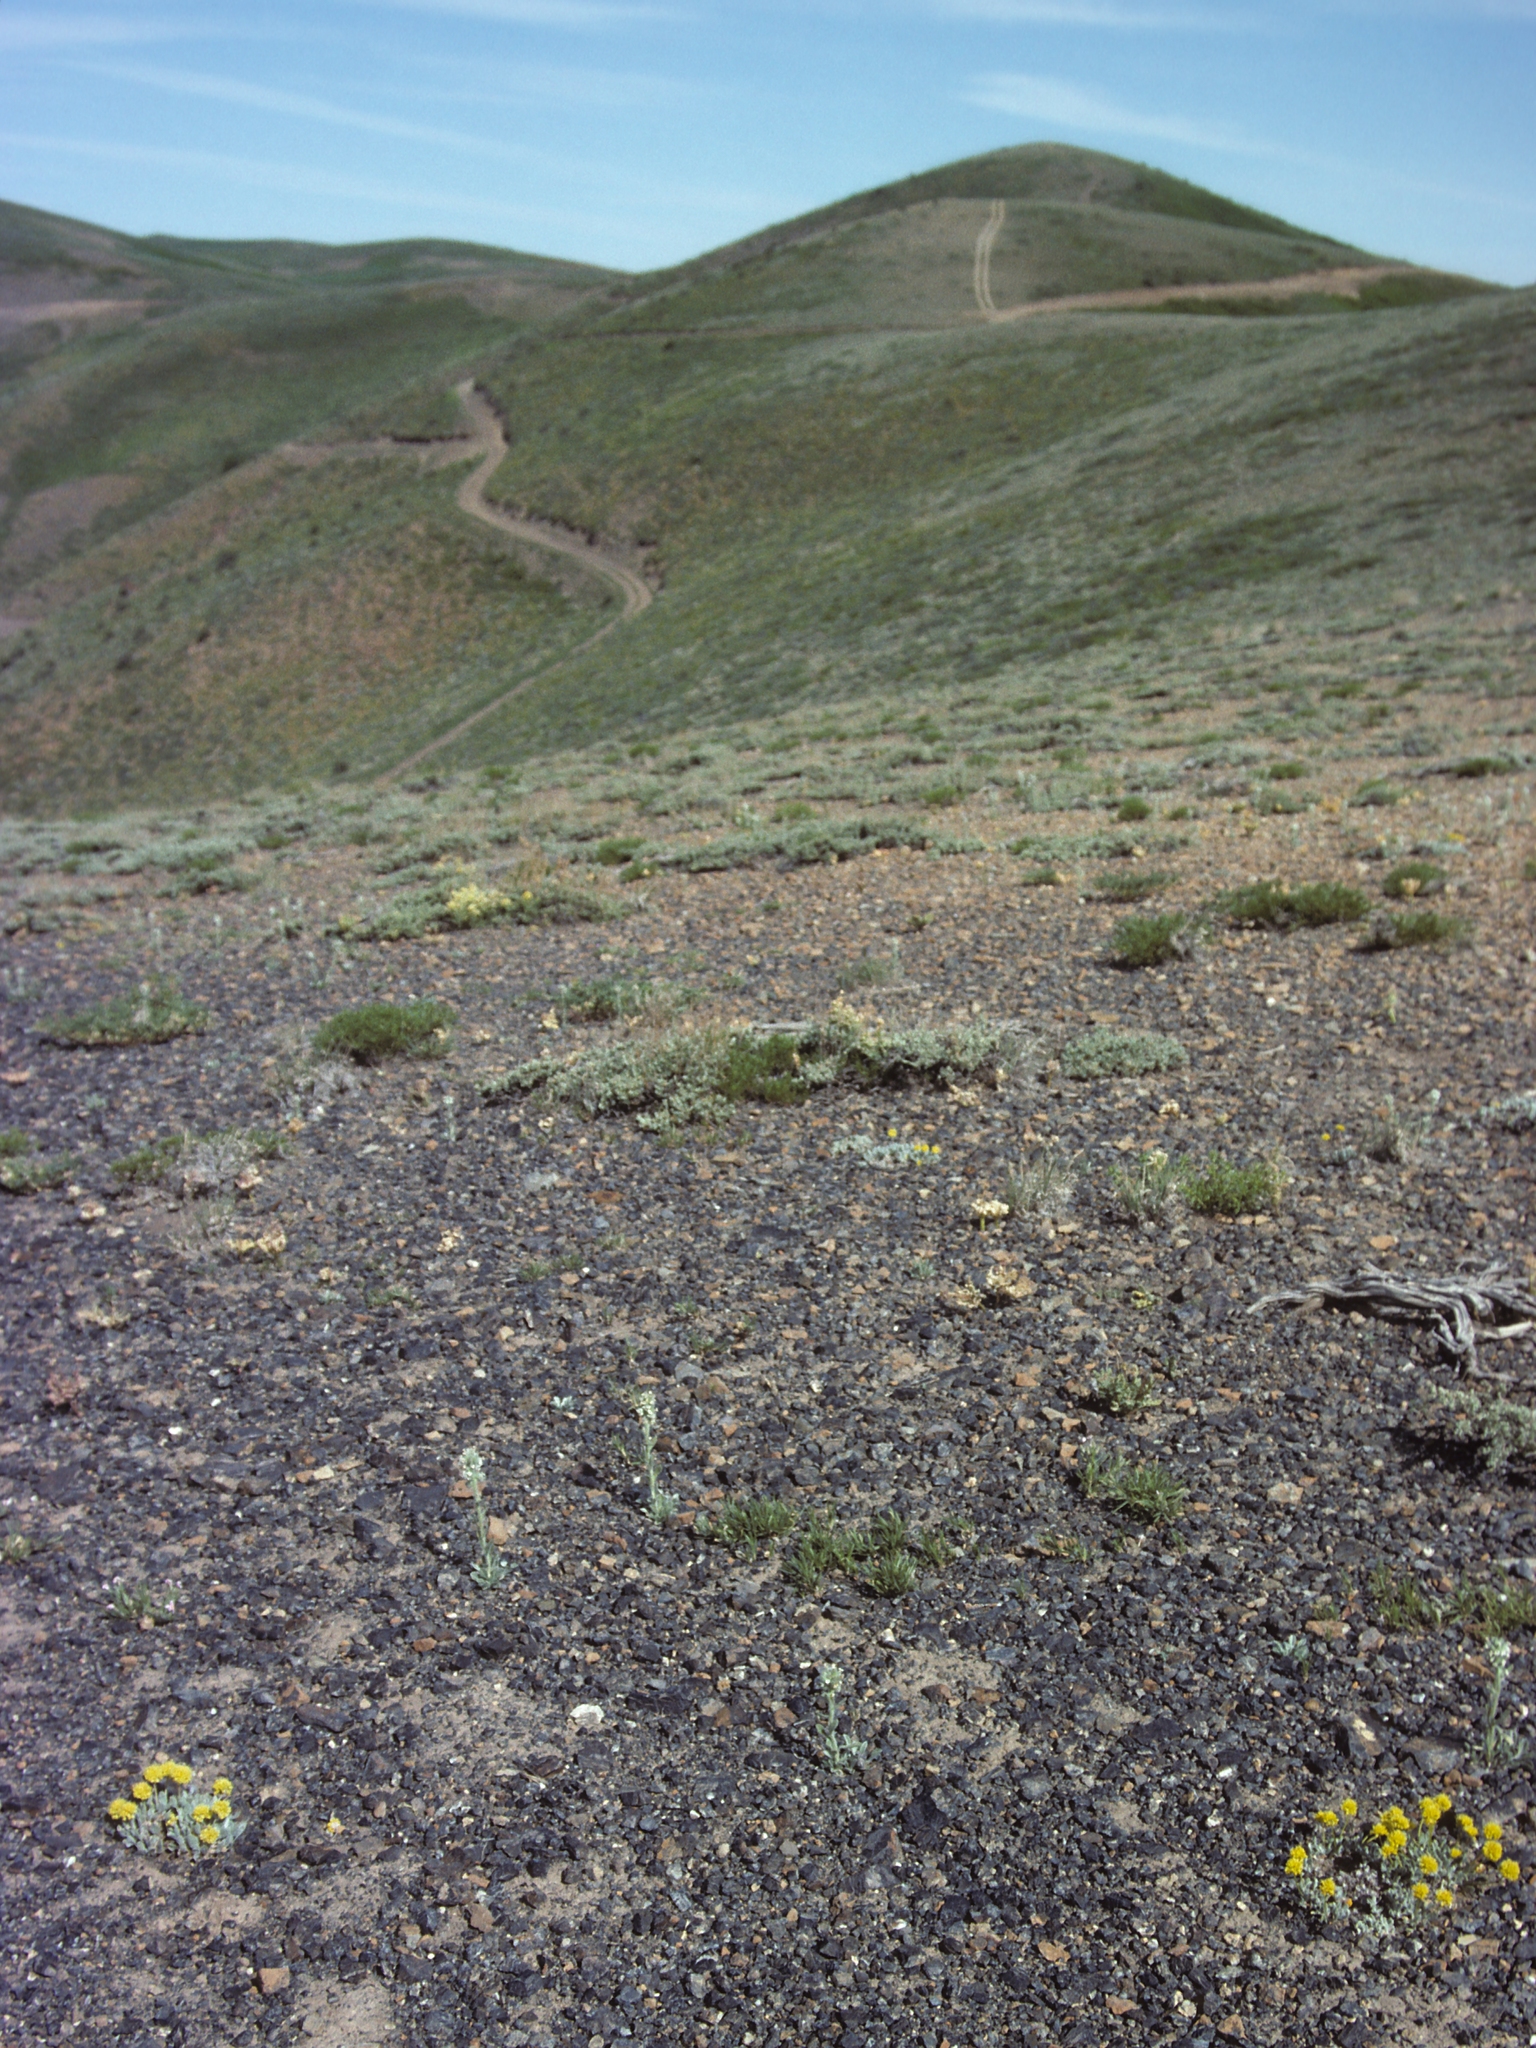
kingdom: Plantae
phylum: Tracheophyta
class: Magnoliopsida
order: Caryophyllales
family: Polygonaceae
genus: Eriogonum
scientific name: Eriogonum desertorum
